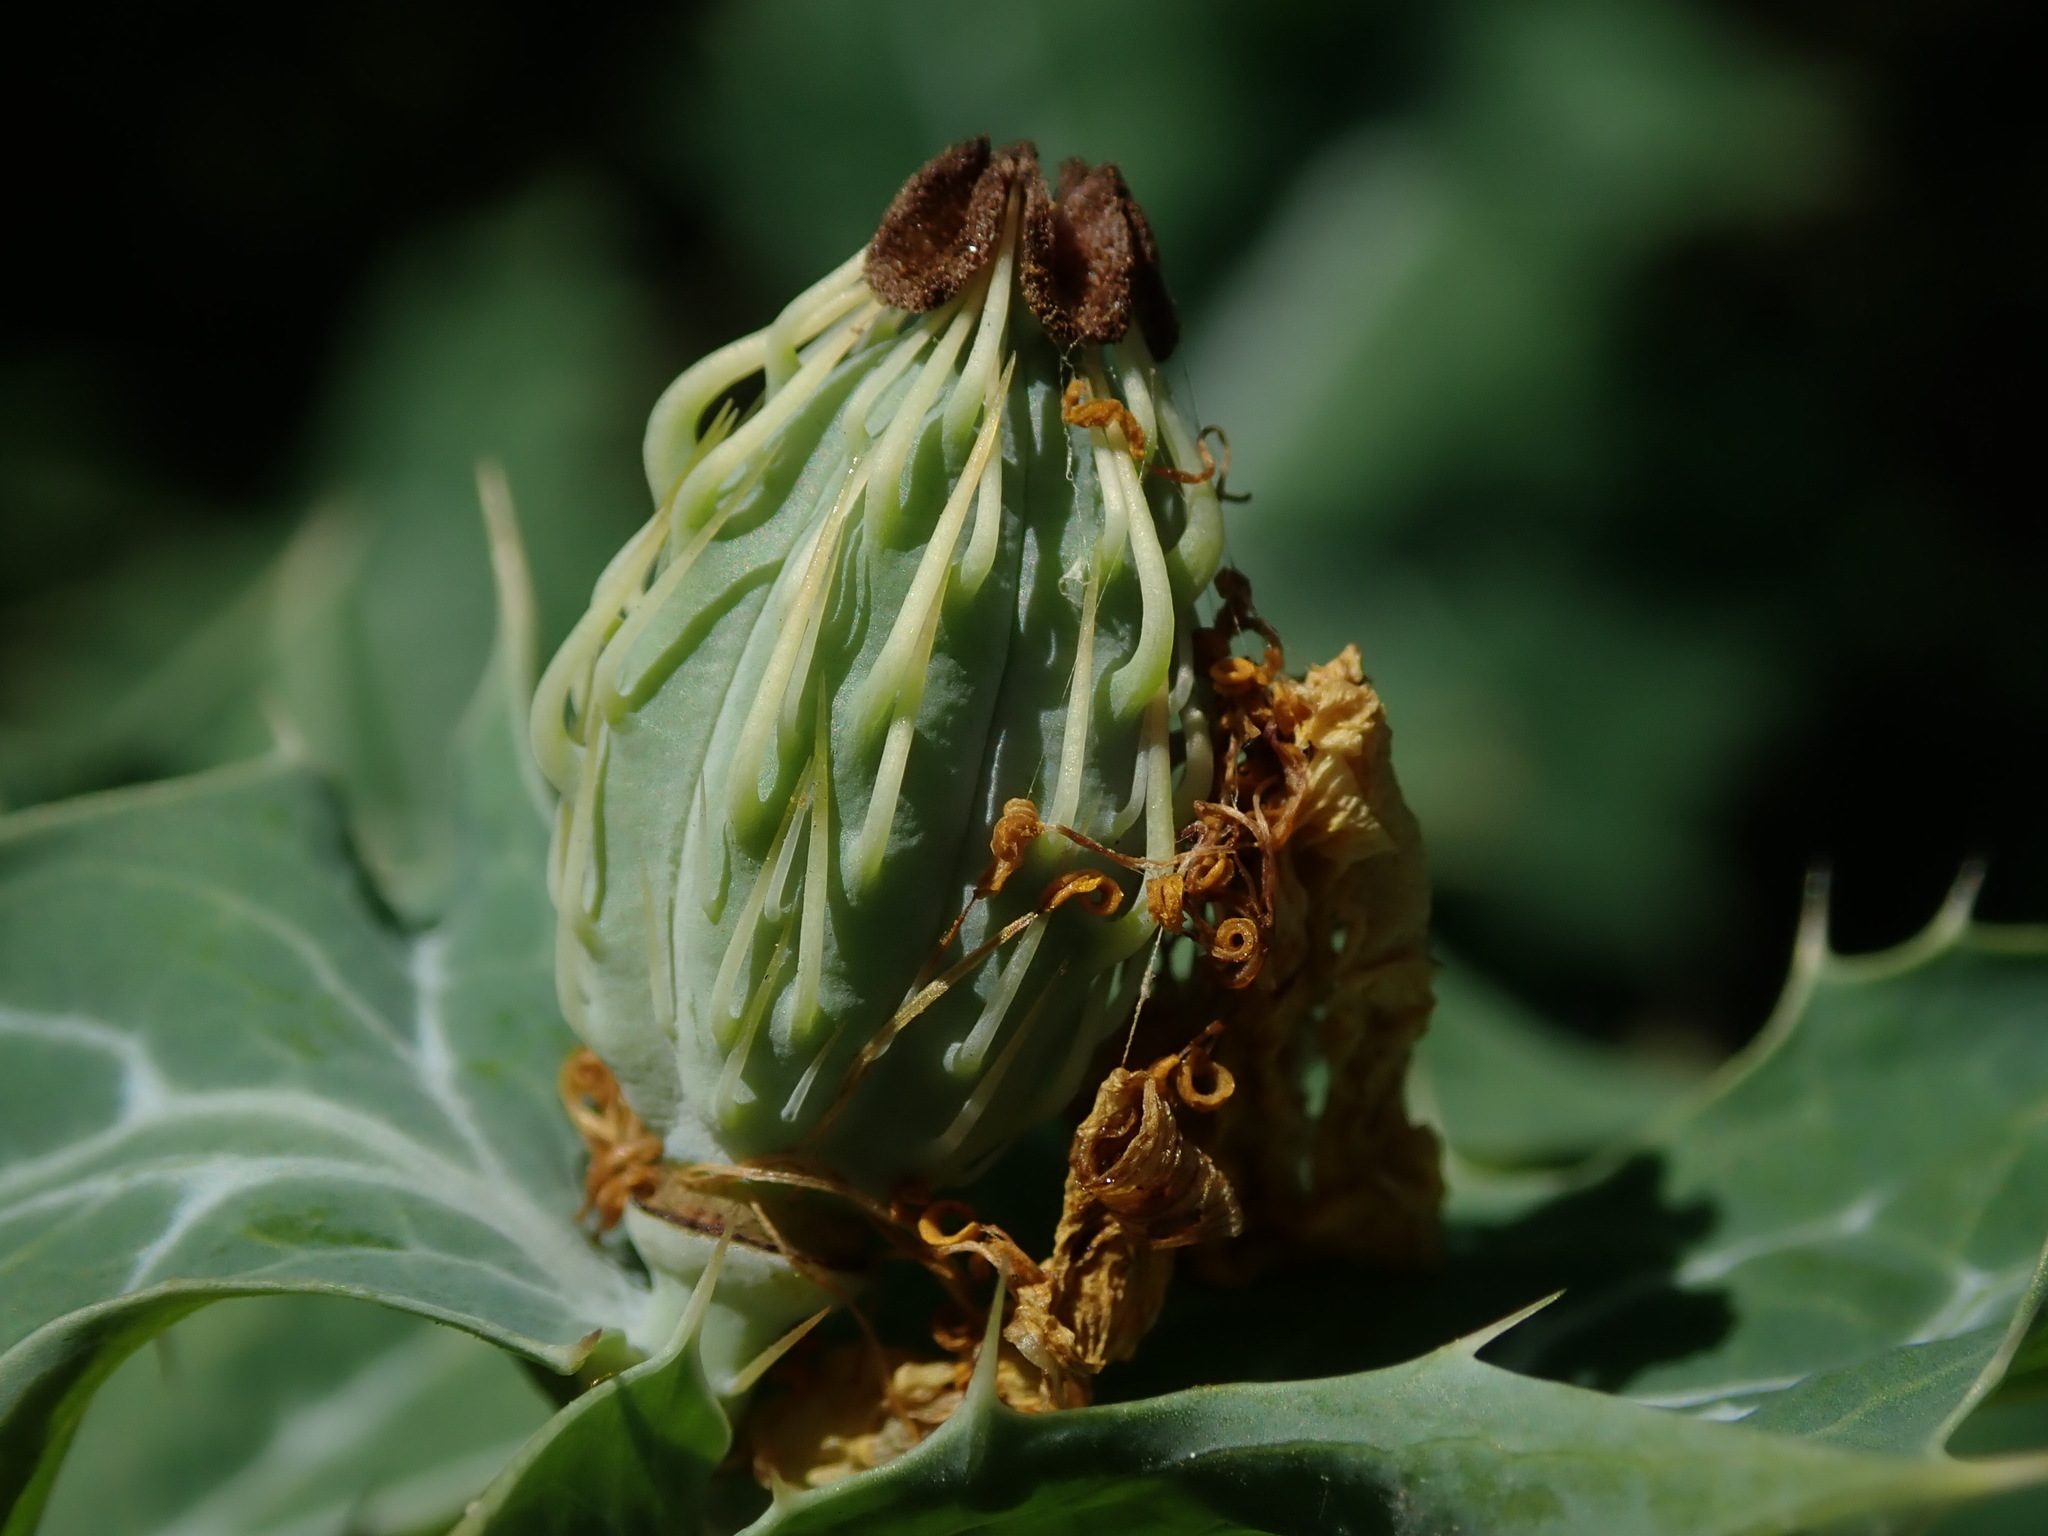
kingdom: Plantae
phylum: Tracheophyta
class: Magnoliopsida
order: Ranunculales
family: Papaveraceae
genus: Argemone
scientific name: Argemone mexicana
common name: Mexican poppy
